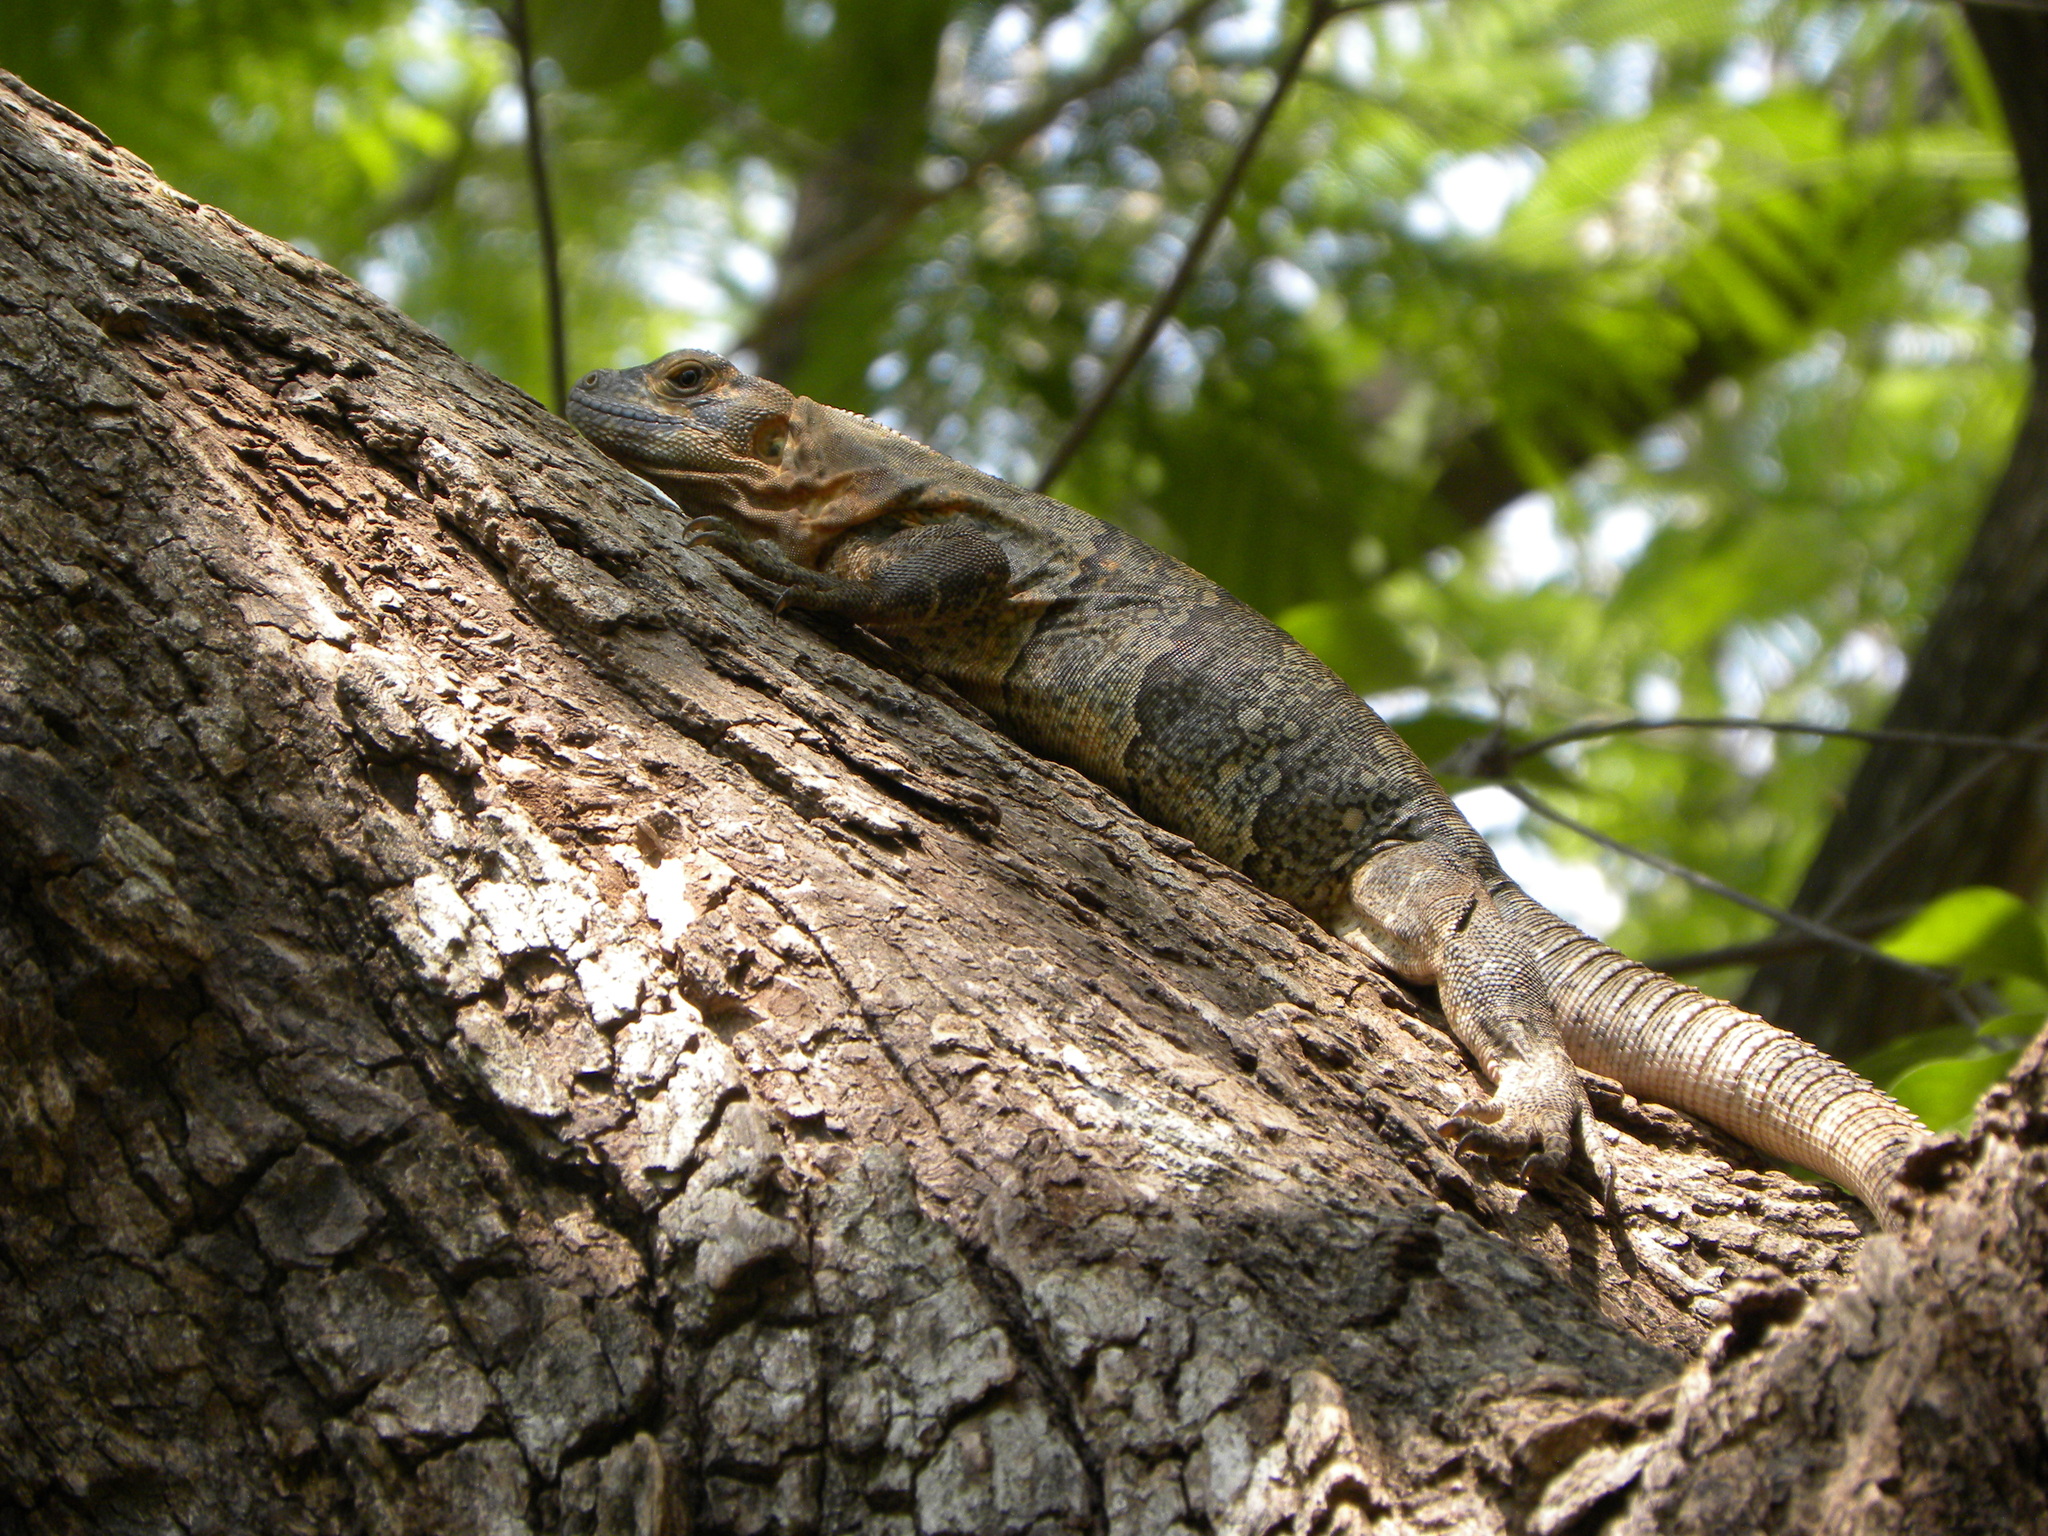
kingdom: Animalia
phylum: Chordata
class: Squamata
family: Iguanidae
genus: Ctenosaura
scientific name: Ctenosaura similis
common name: Black spiny-tailed iguana
